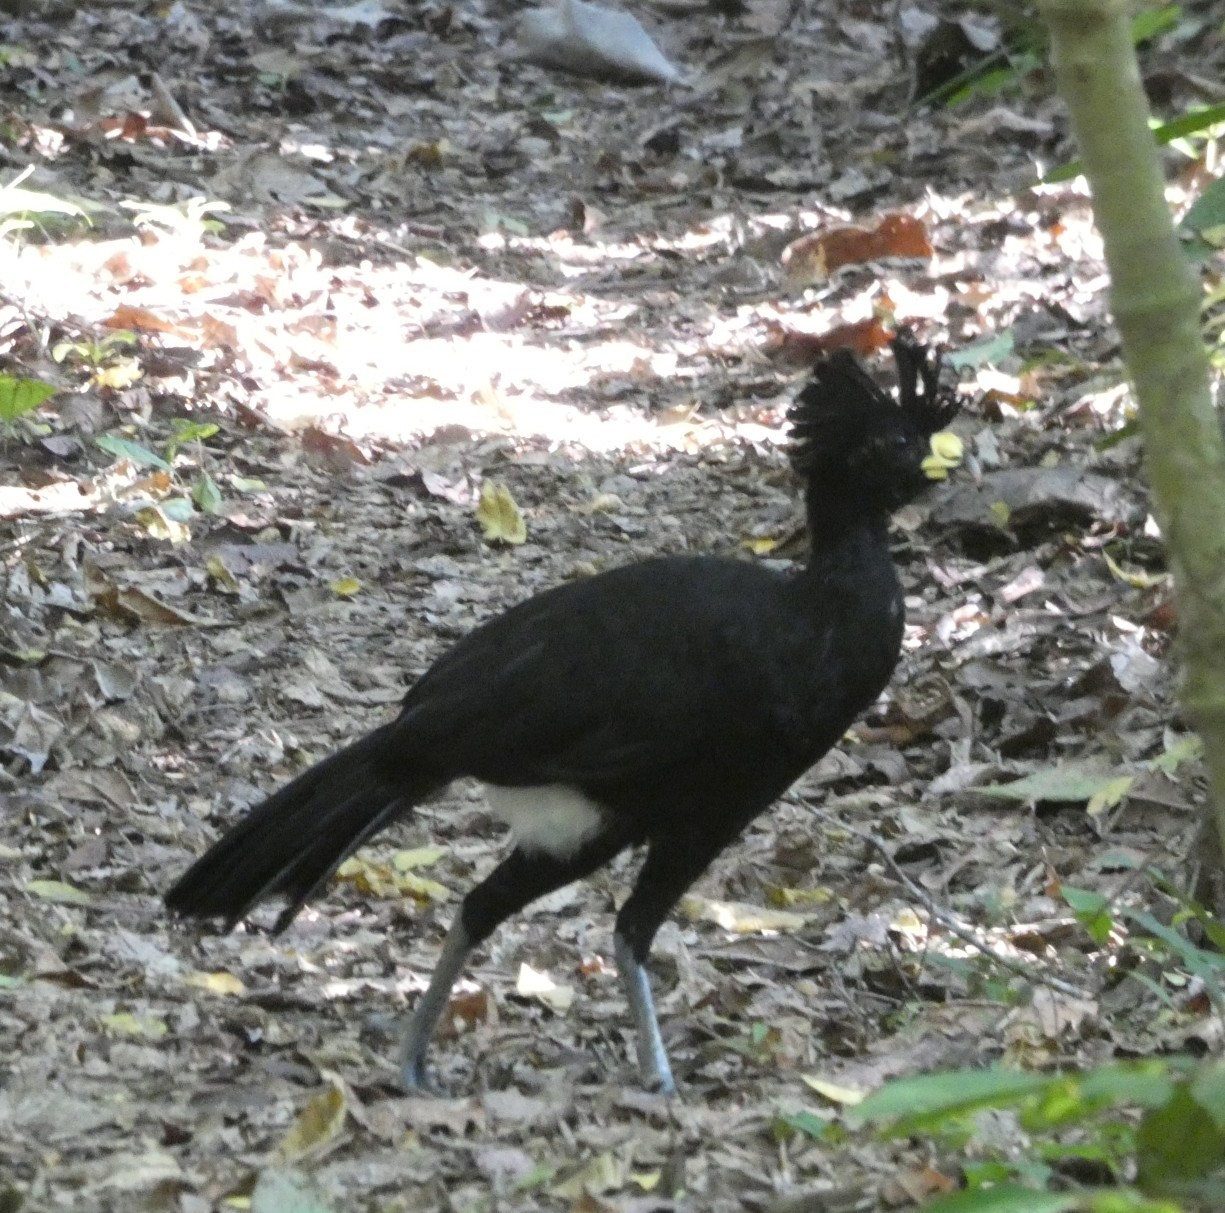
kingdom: Animalia
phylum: Chordata
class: Aves
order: Galliformes
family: Cracidae
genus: Crax
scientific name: Crax rubra
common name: Great curassow
